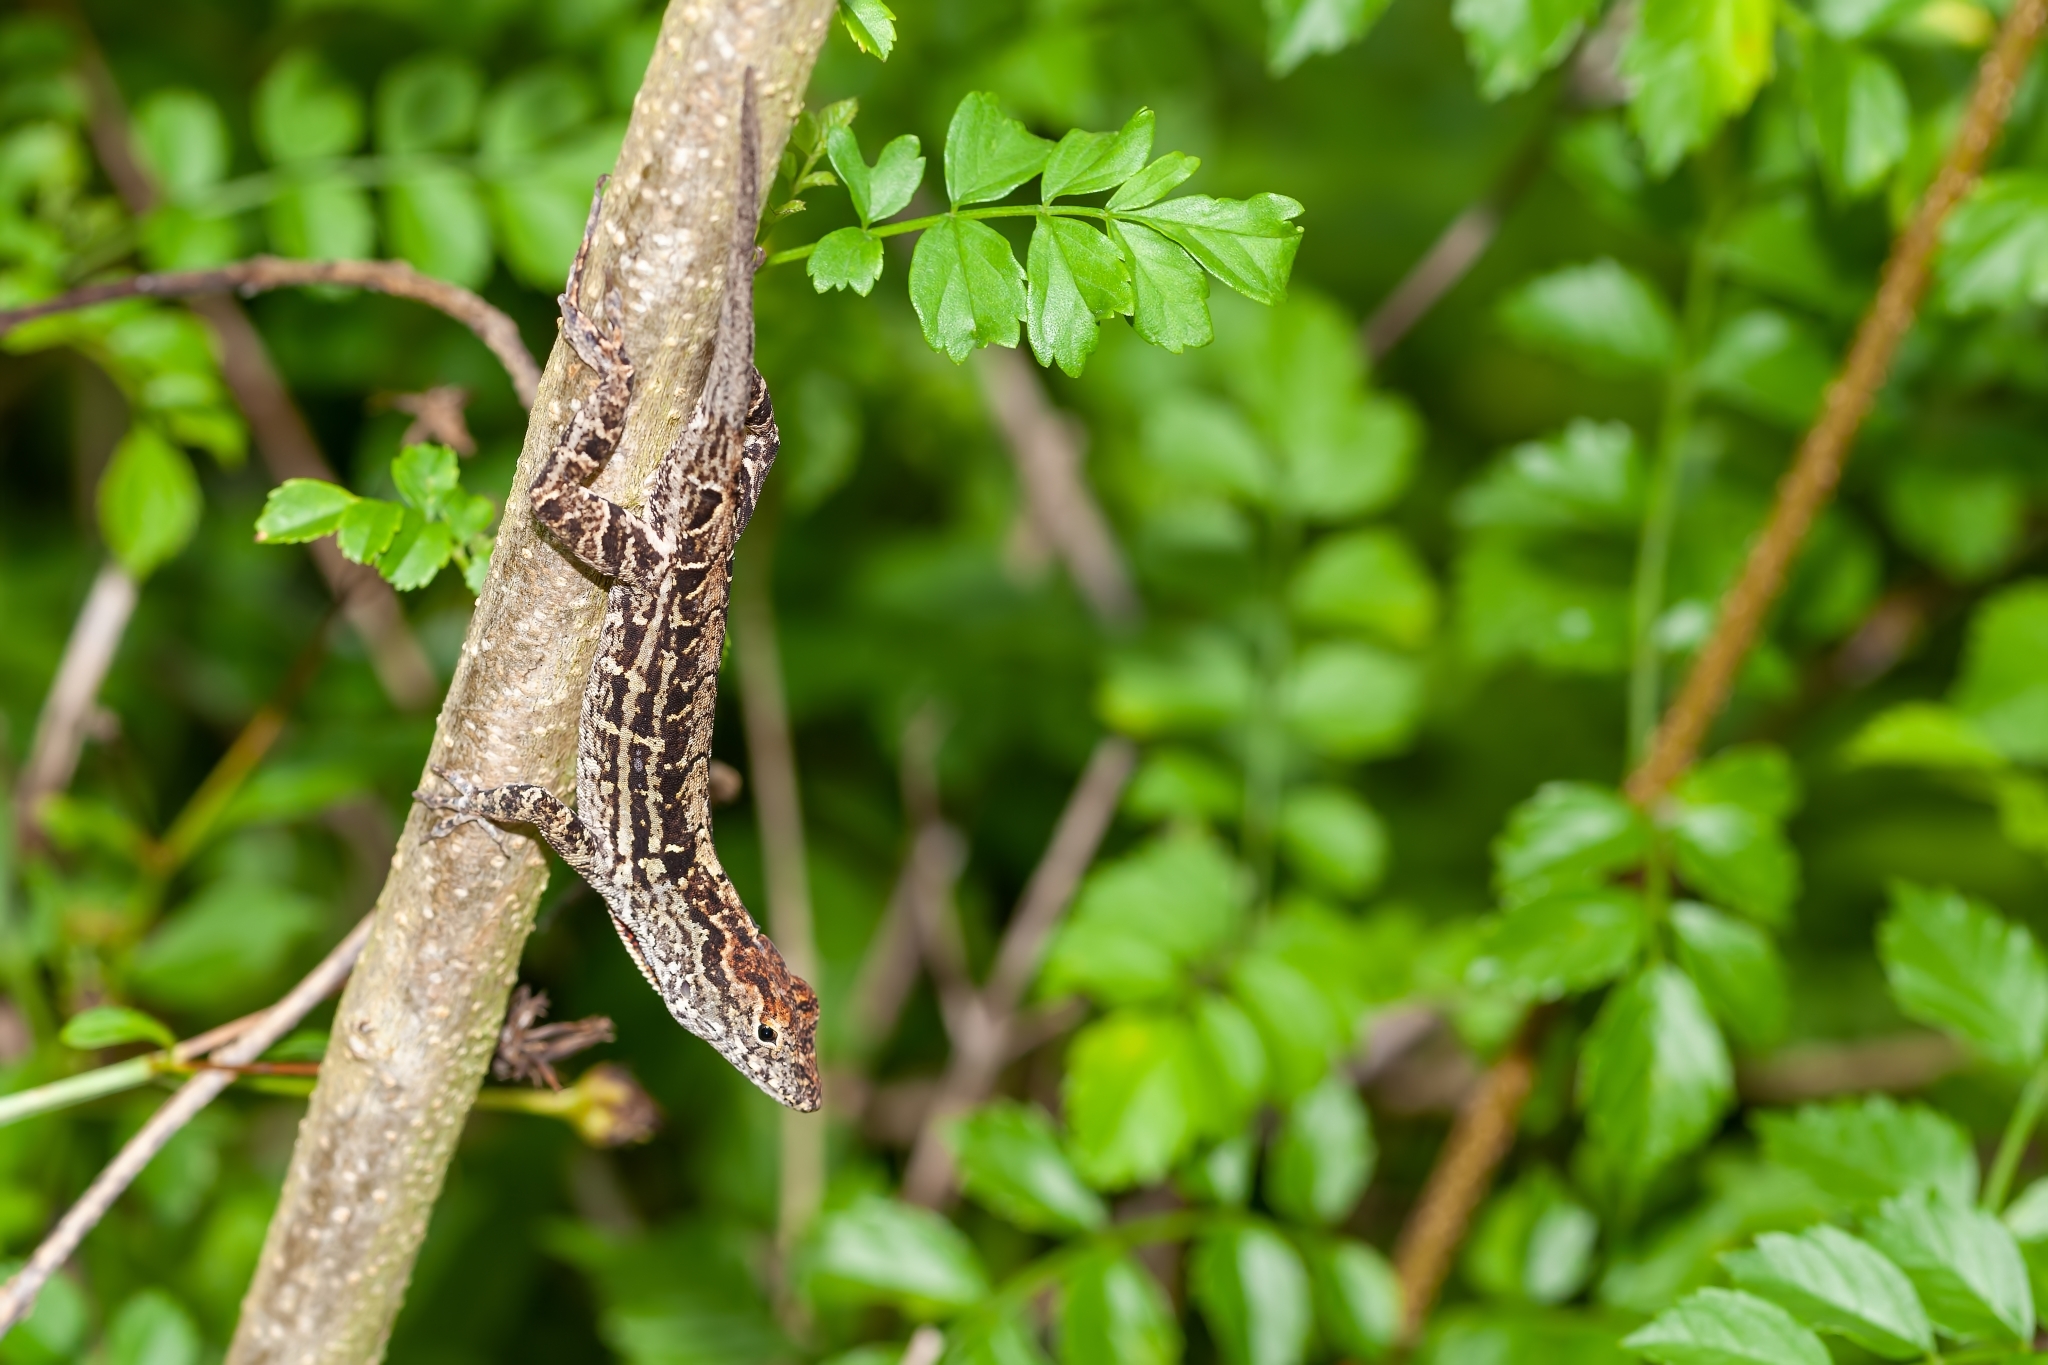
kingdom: Animalia
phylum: Chordata
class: Squamata
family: Dactyloidae
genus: Anolis
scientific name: Anolis sagrei
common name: Brown anole
